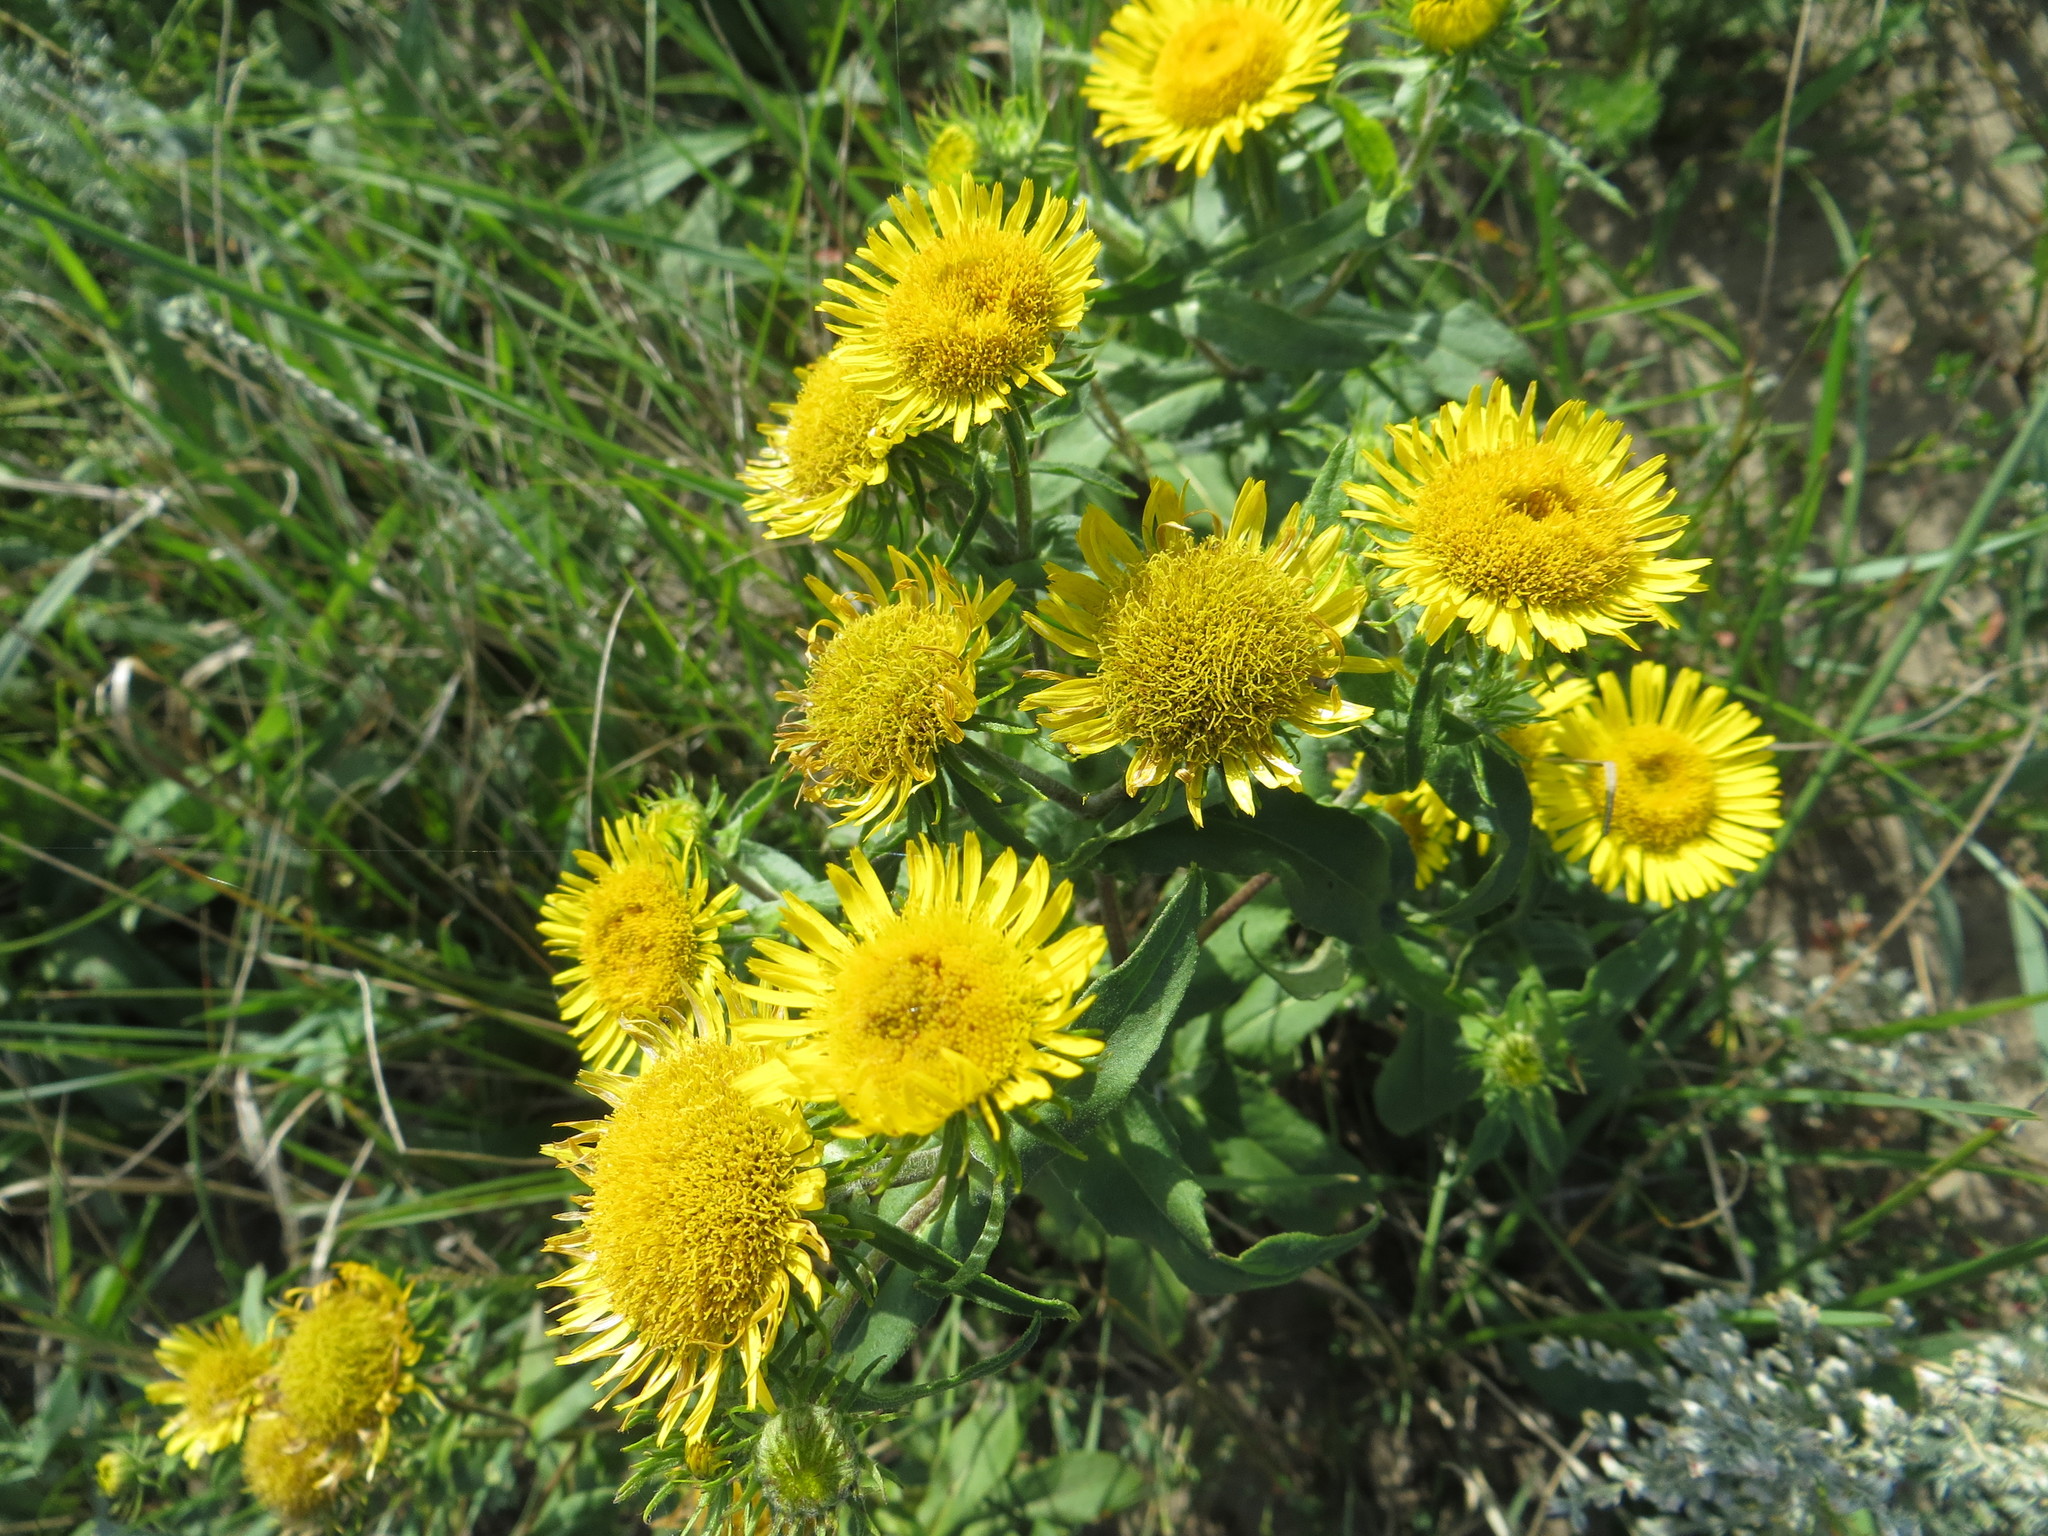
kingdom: Plantae
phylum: Tracheophyta
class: Magnoliopsida
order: Asterales
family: Asteraceae
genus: Pentanema
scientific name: Pentanema britannicum
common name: British elecampane
